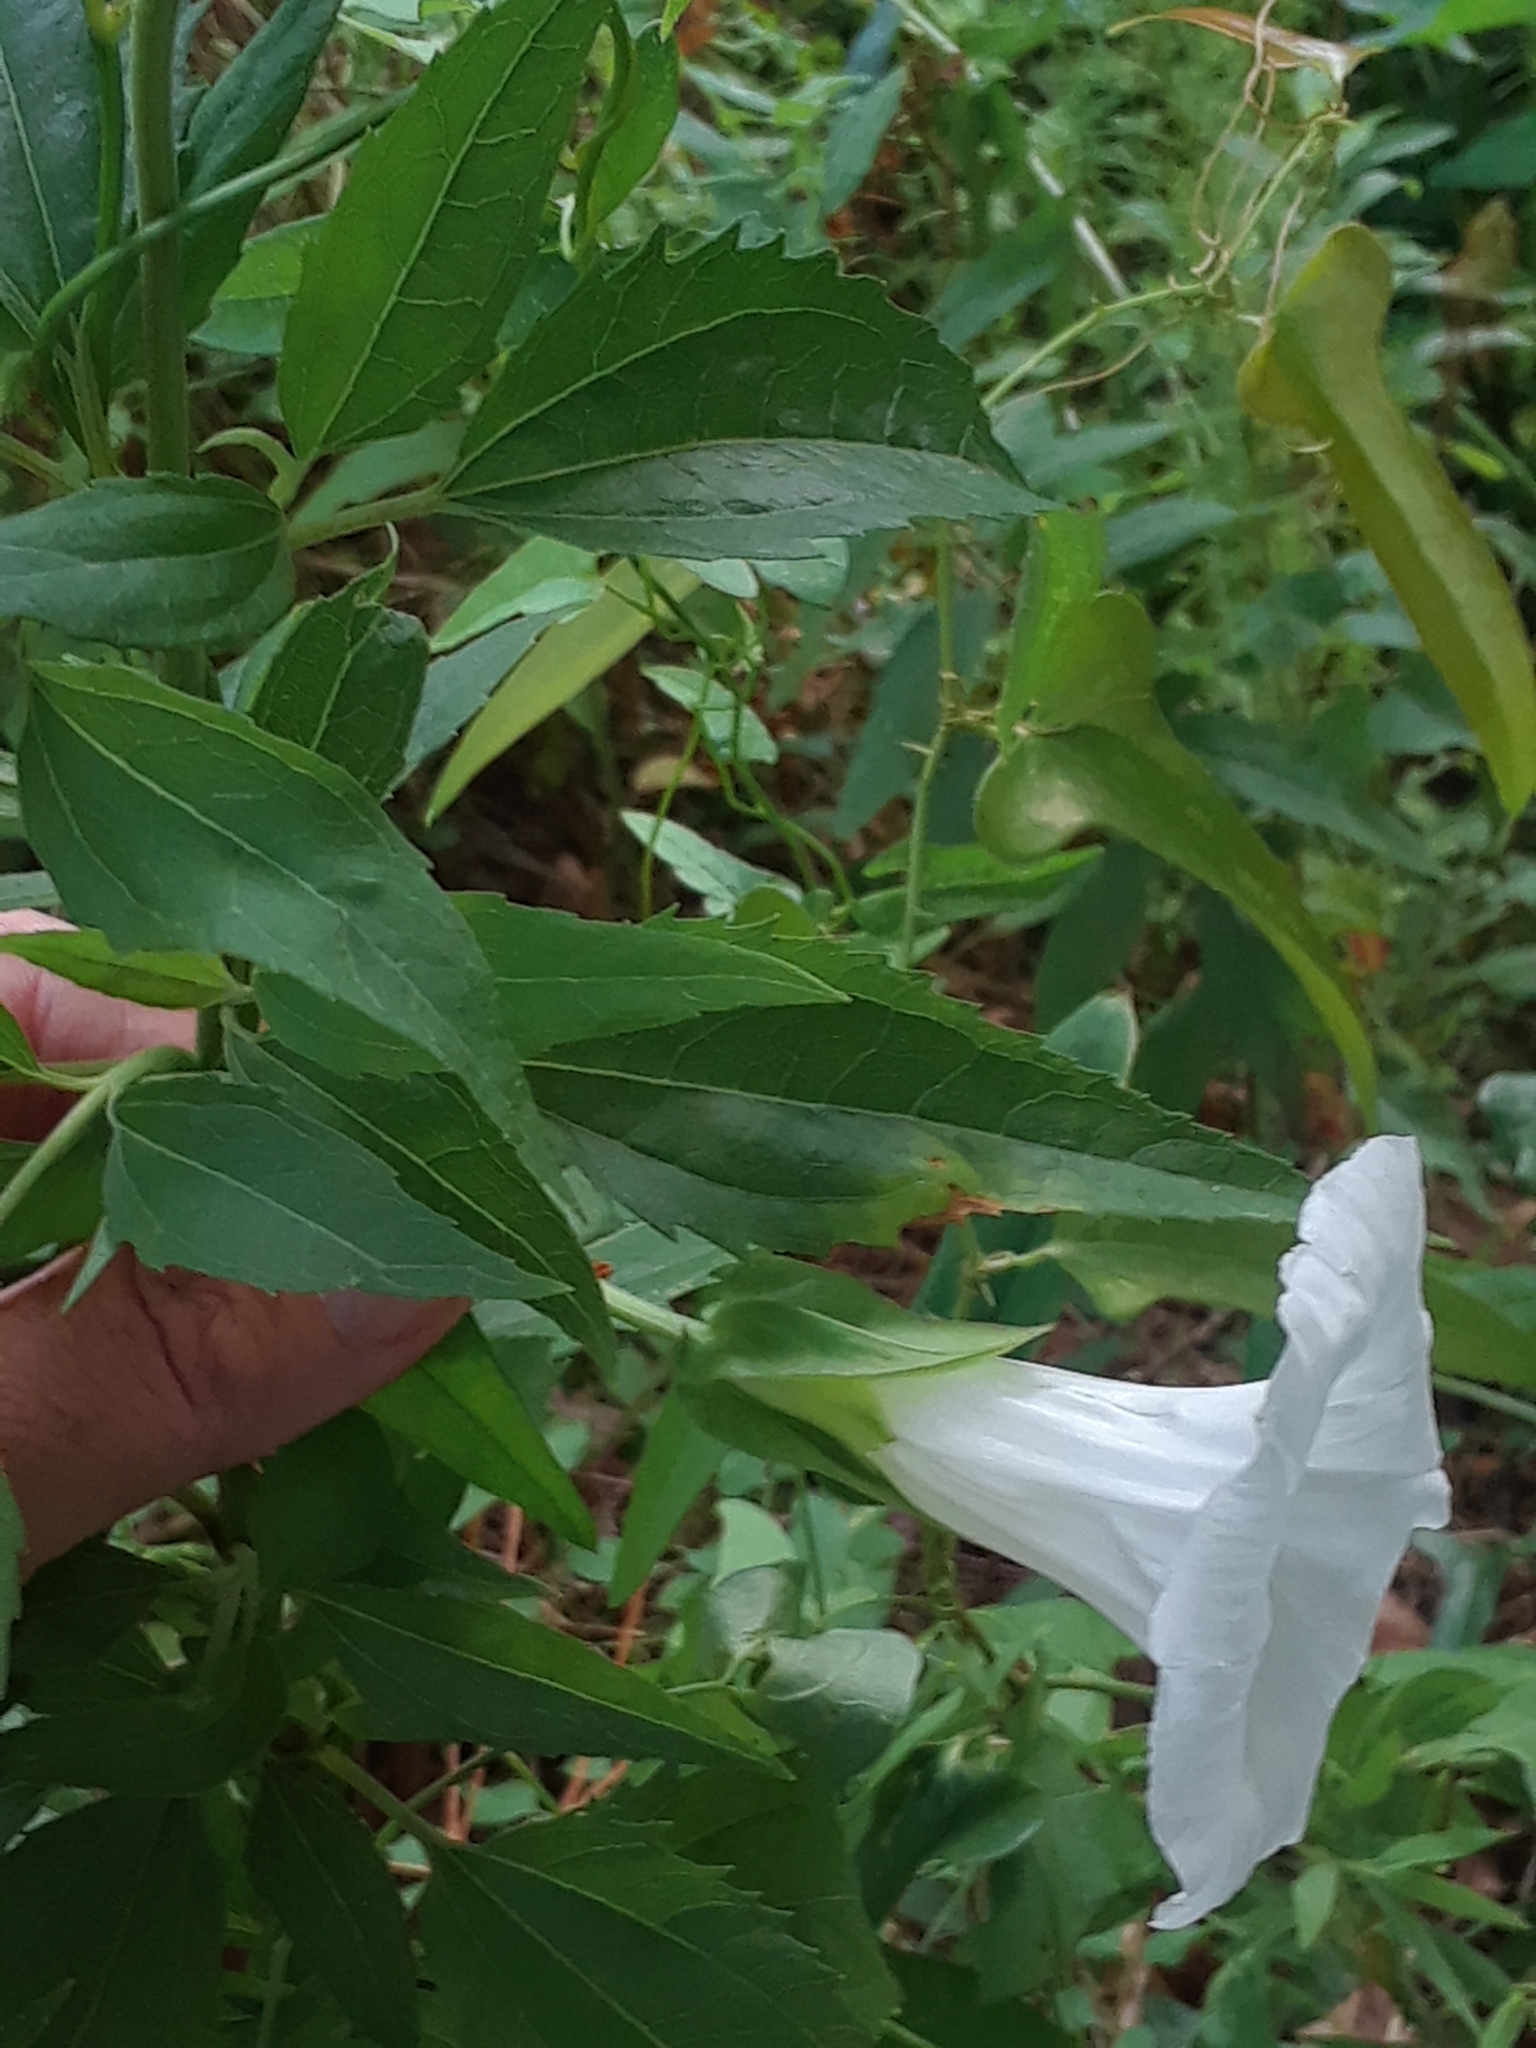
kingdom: Plantae
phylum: Tracheophyta
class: Magnoliopsida
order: Solanales
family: Convolvulaceae
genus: Calystegia
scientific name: Calystegia sepium
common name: Hedge bindweed
